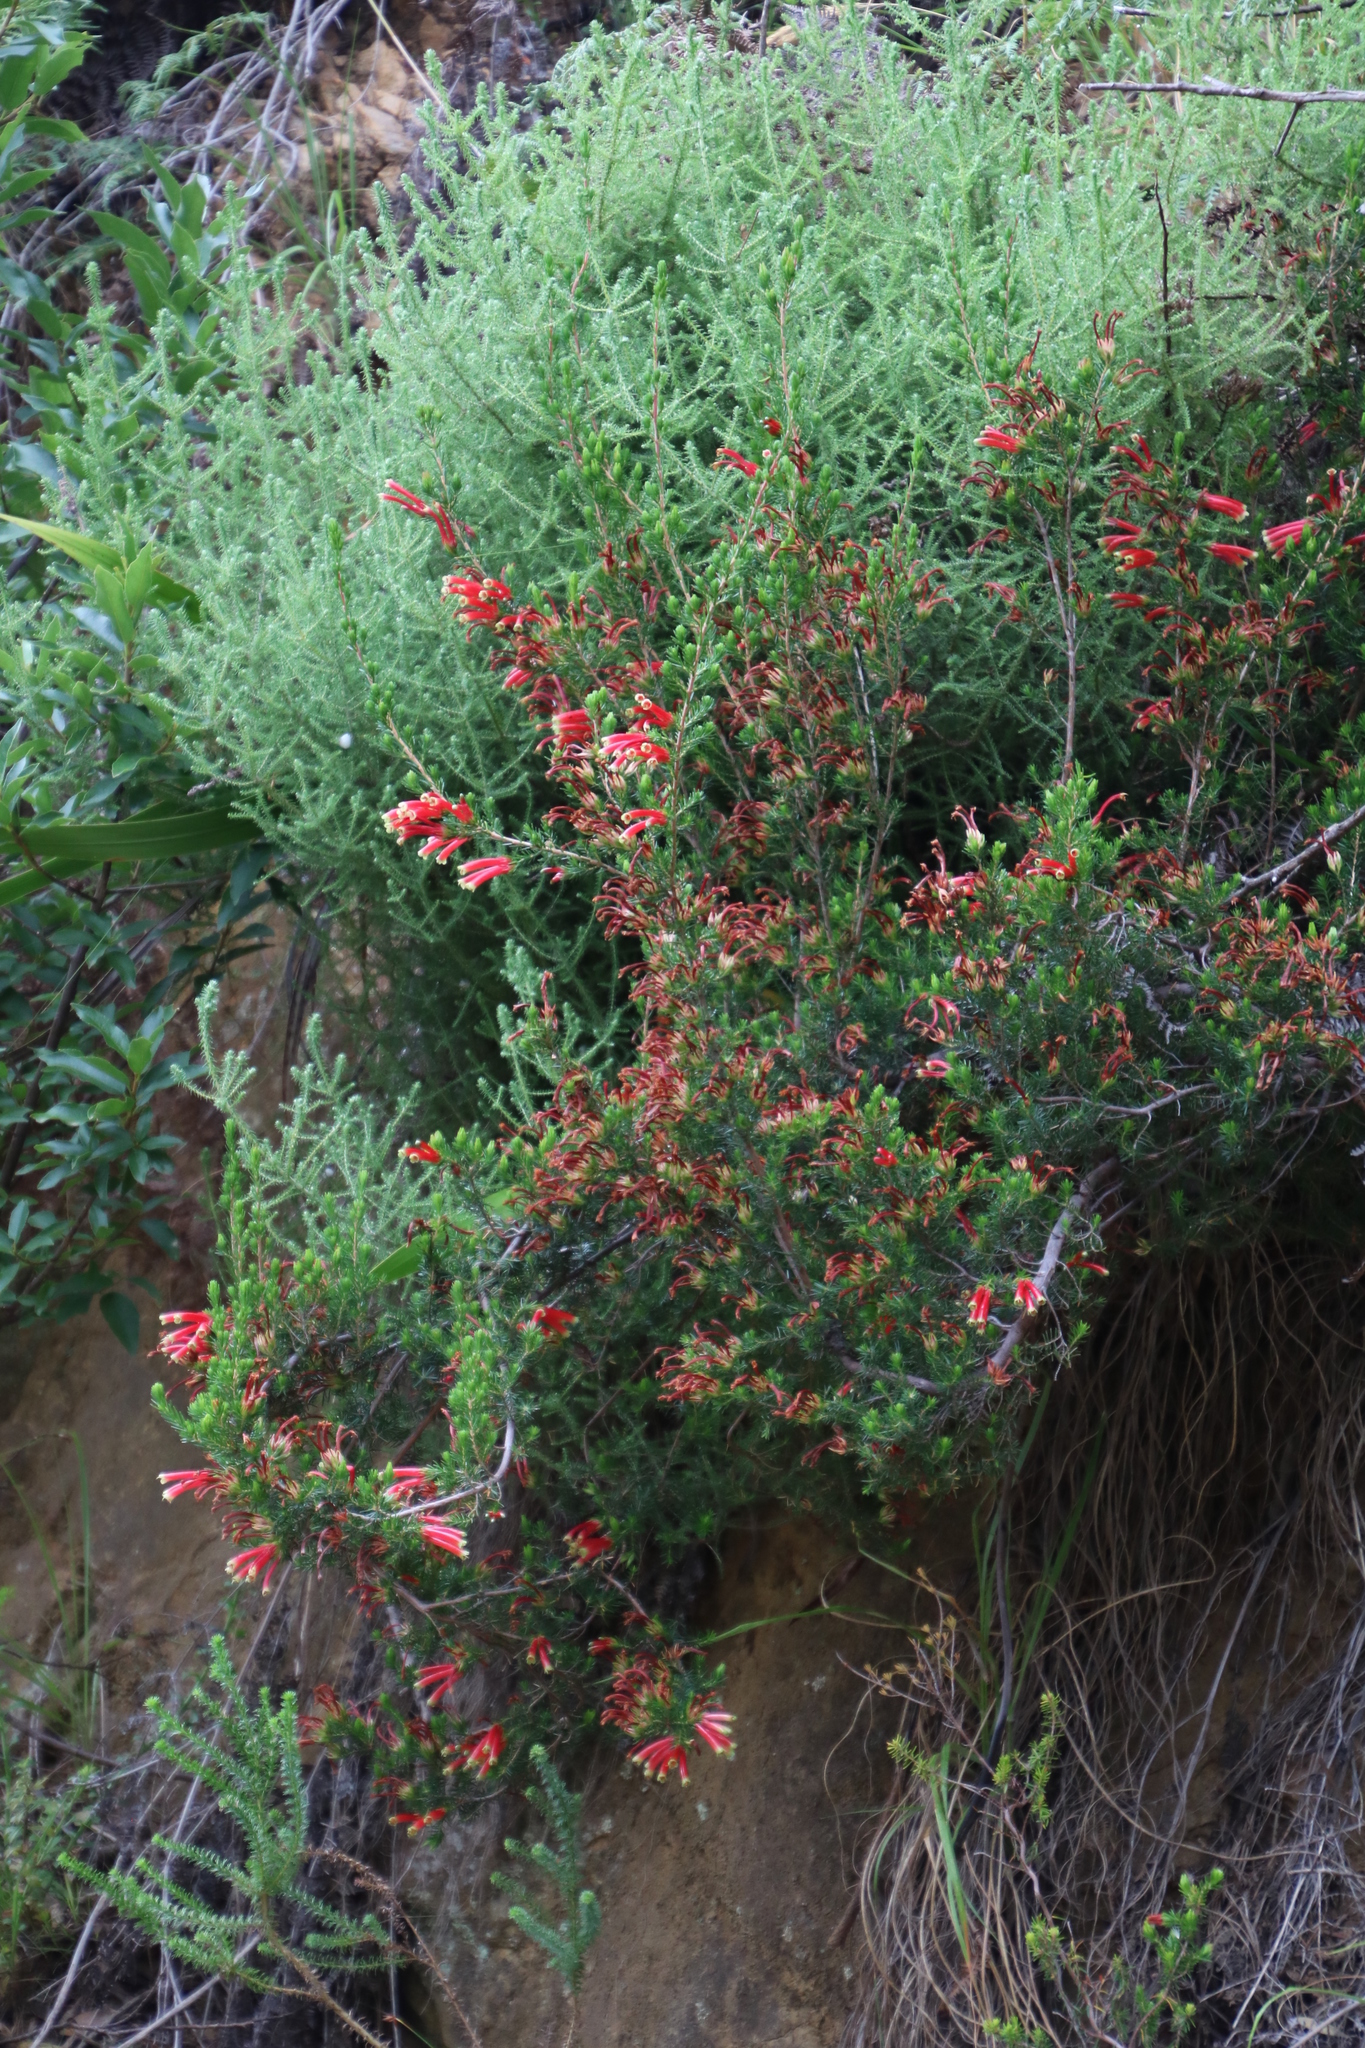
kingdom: Plantae
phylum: Tracheophyta
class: Magnoliopsida
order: Ericales
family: Ericaceae
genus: Erica
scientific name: Erica discolor
